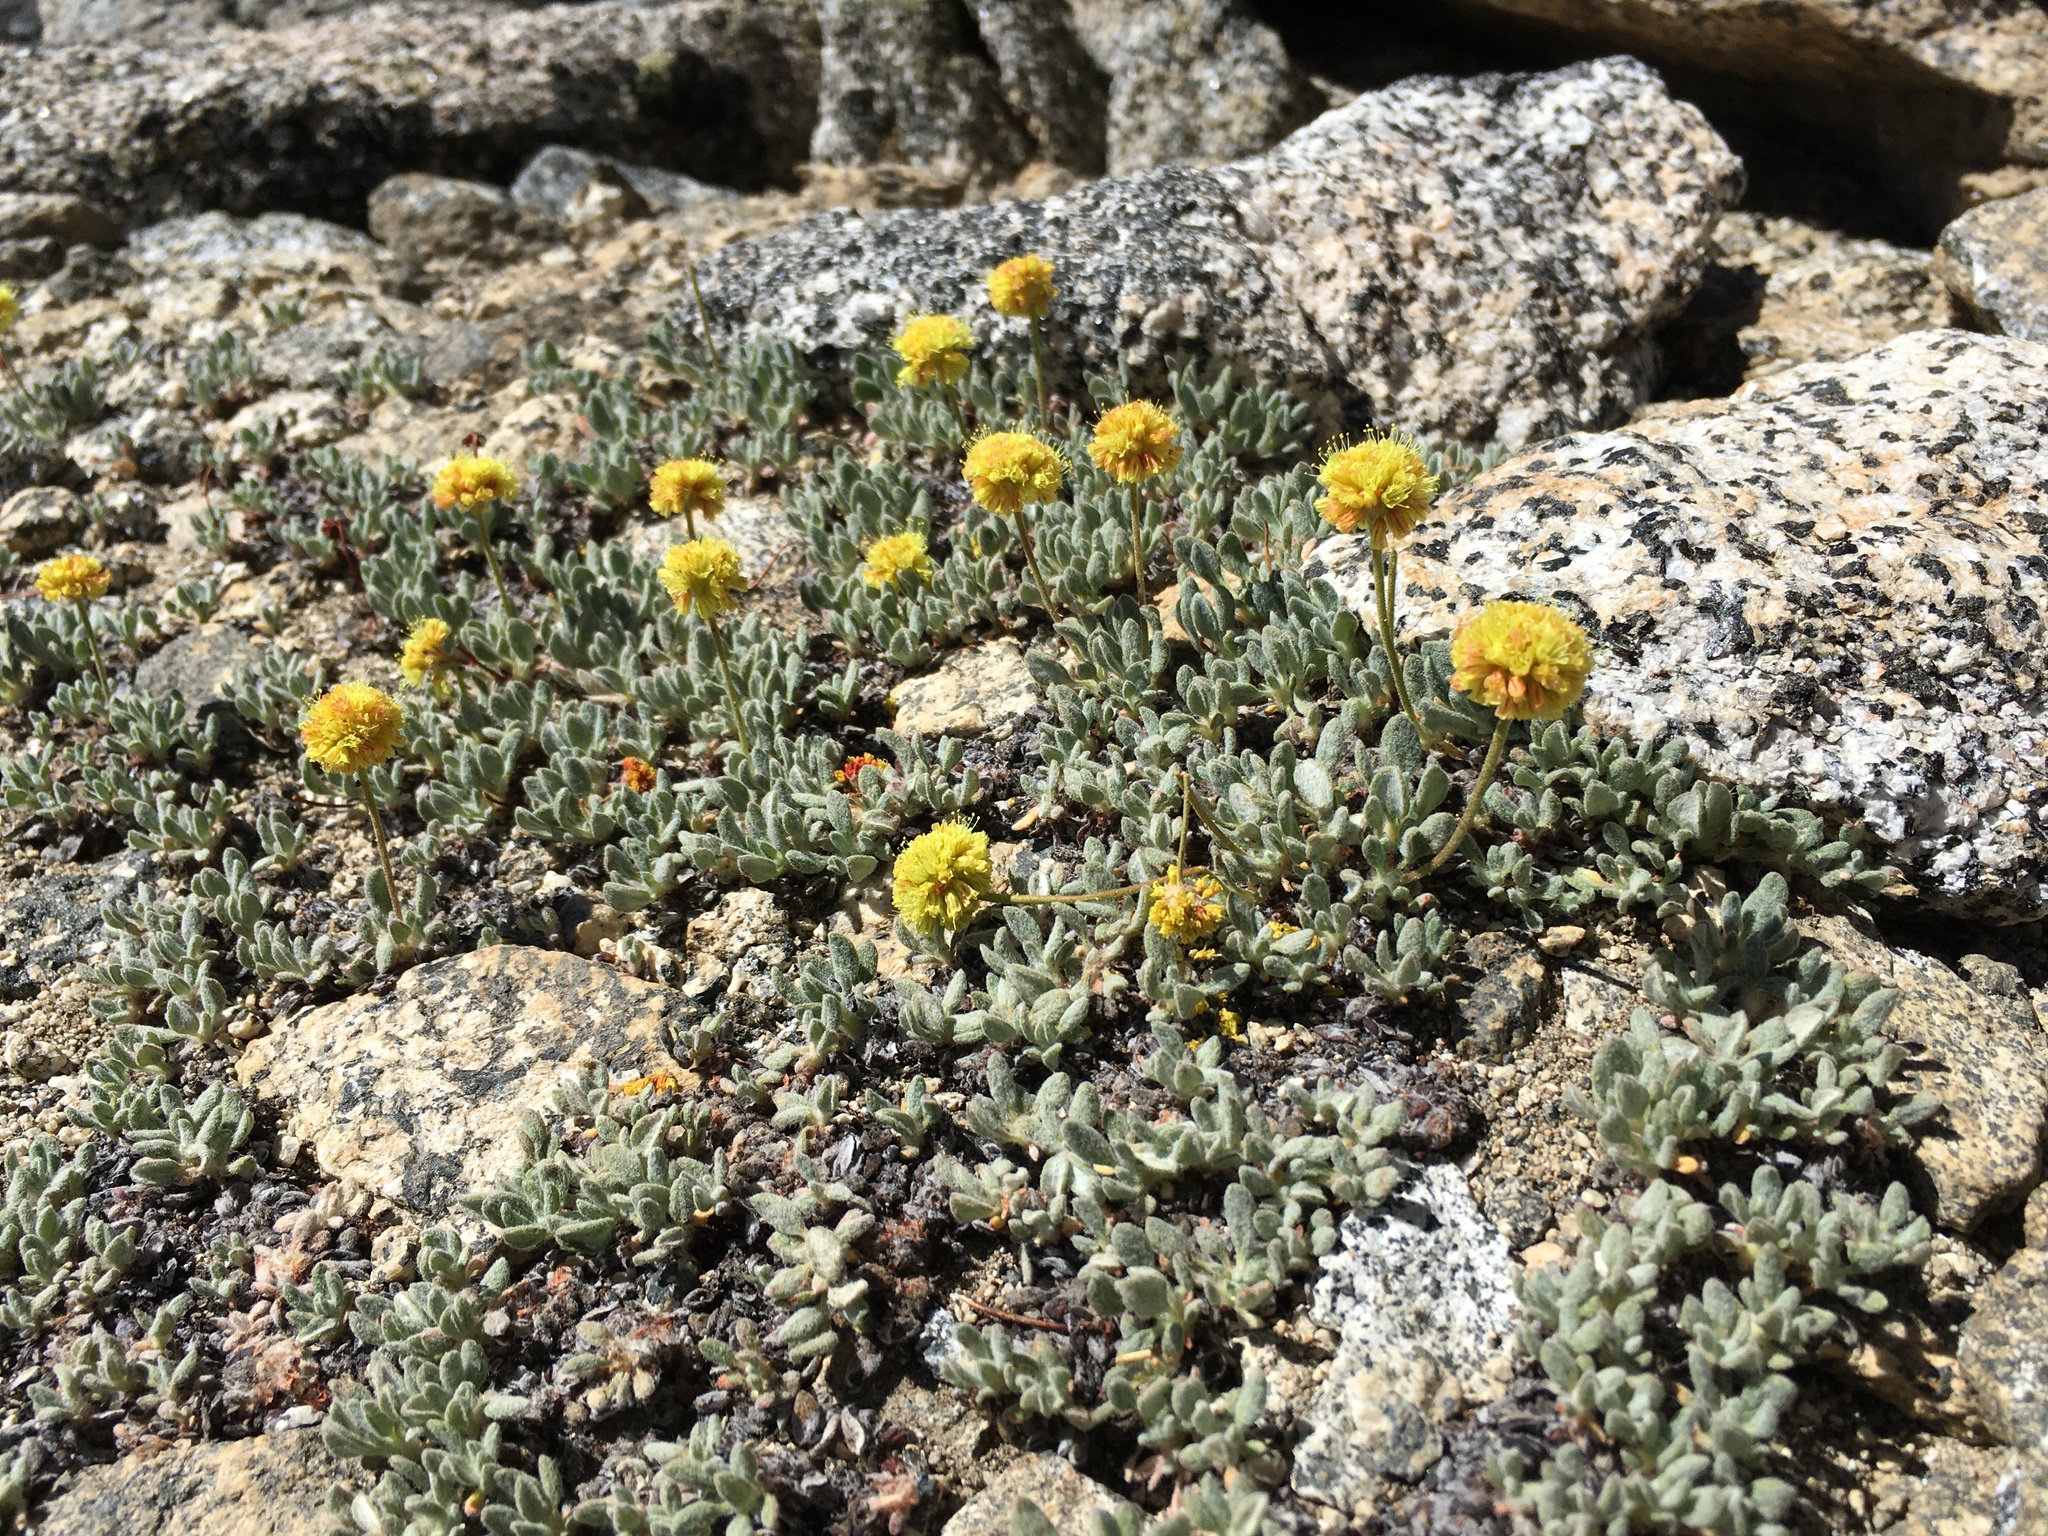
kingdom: Plantae
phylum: Tracheophyta
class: Magnoliopsida
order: Caryophyllales
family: Polygonaceae
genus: Eriogonum
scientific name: Eriogonum rosense
